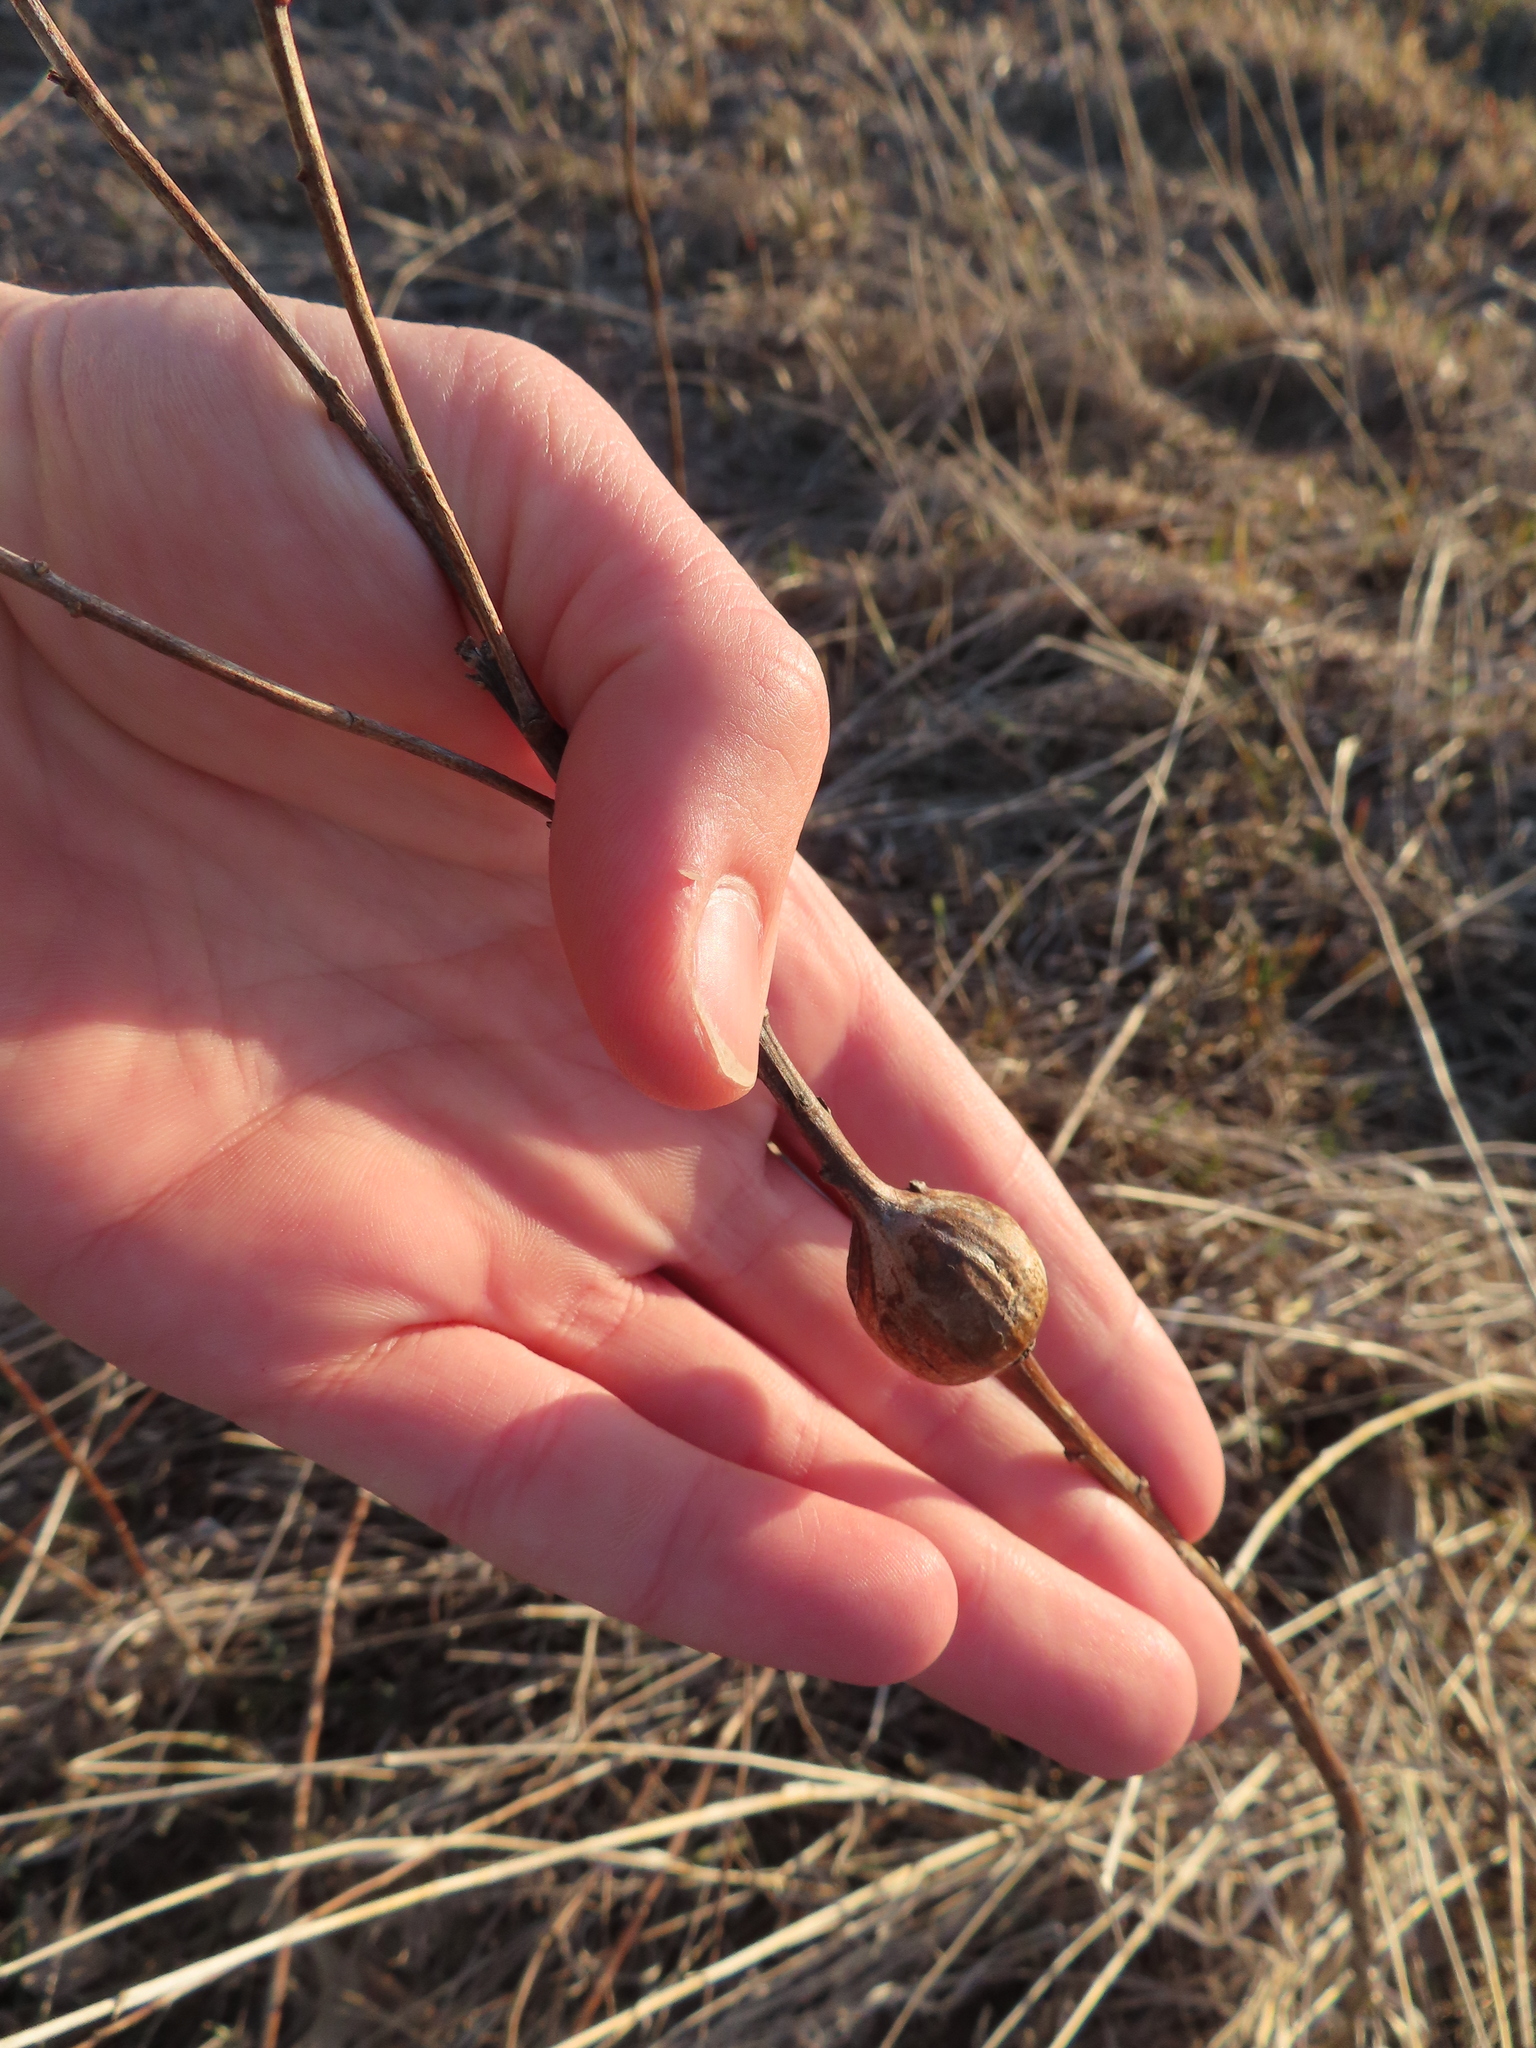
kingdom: Animalia
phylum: Arthropoda
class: Insecta
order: Diptera
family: Tephritidae
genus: Eurosta
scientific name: Eurosta solidaginis
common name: Goldenrod gall fly
